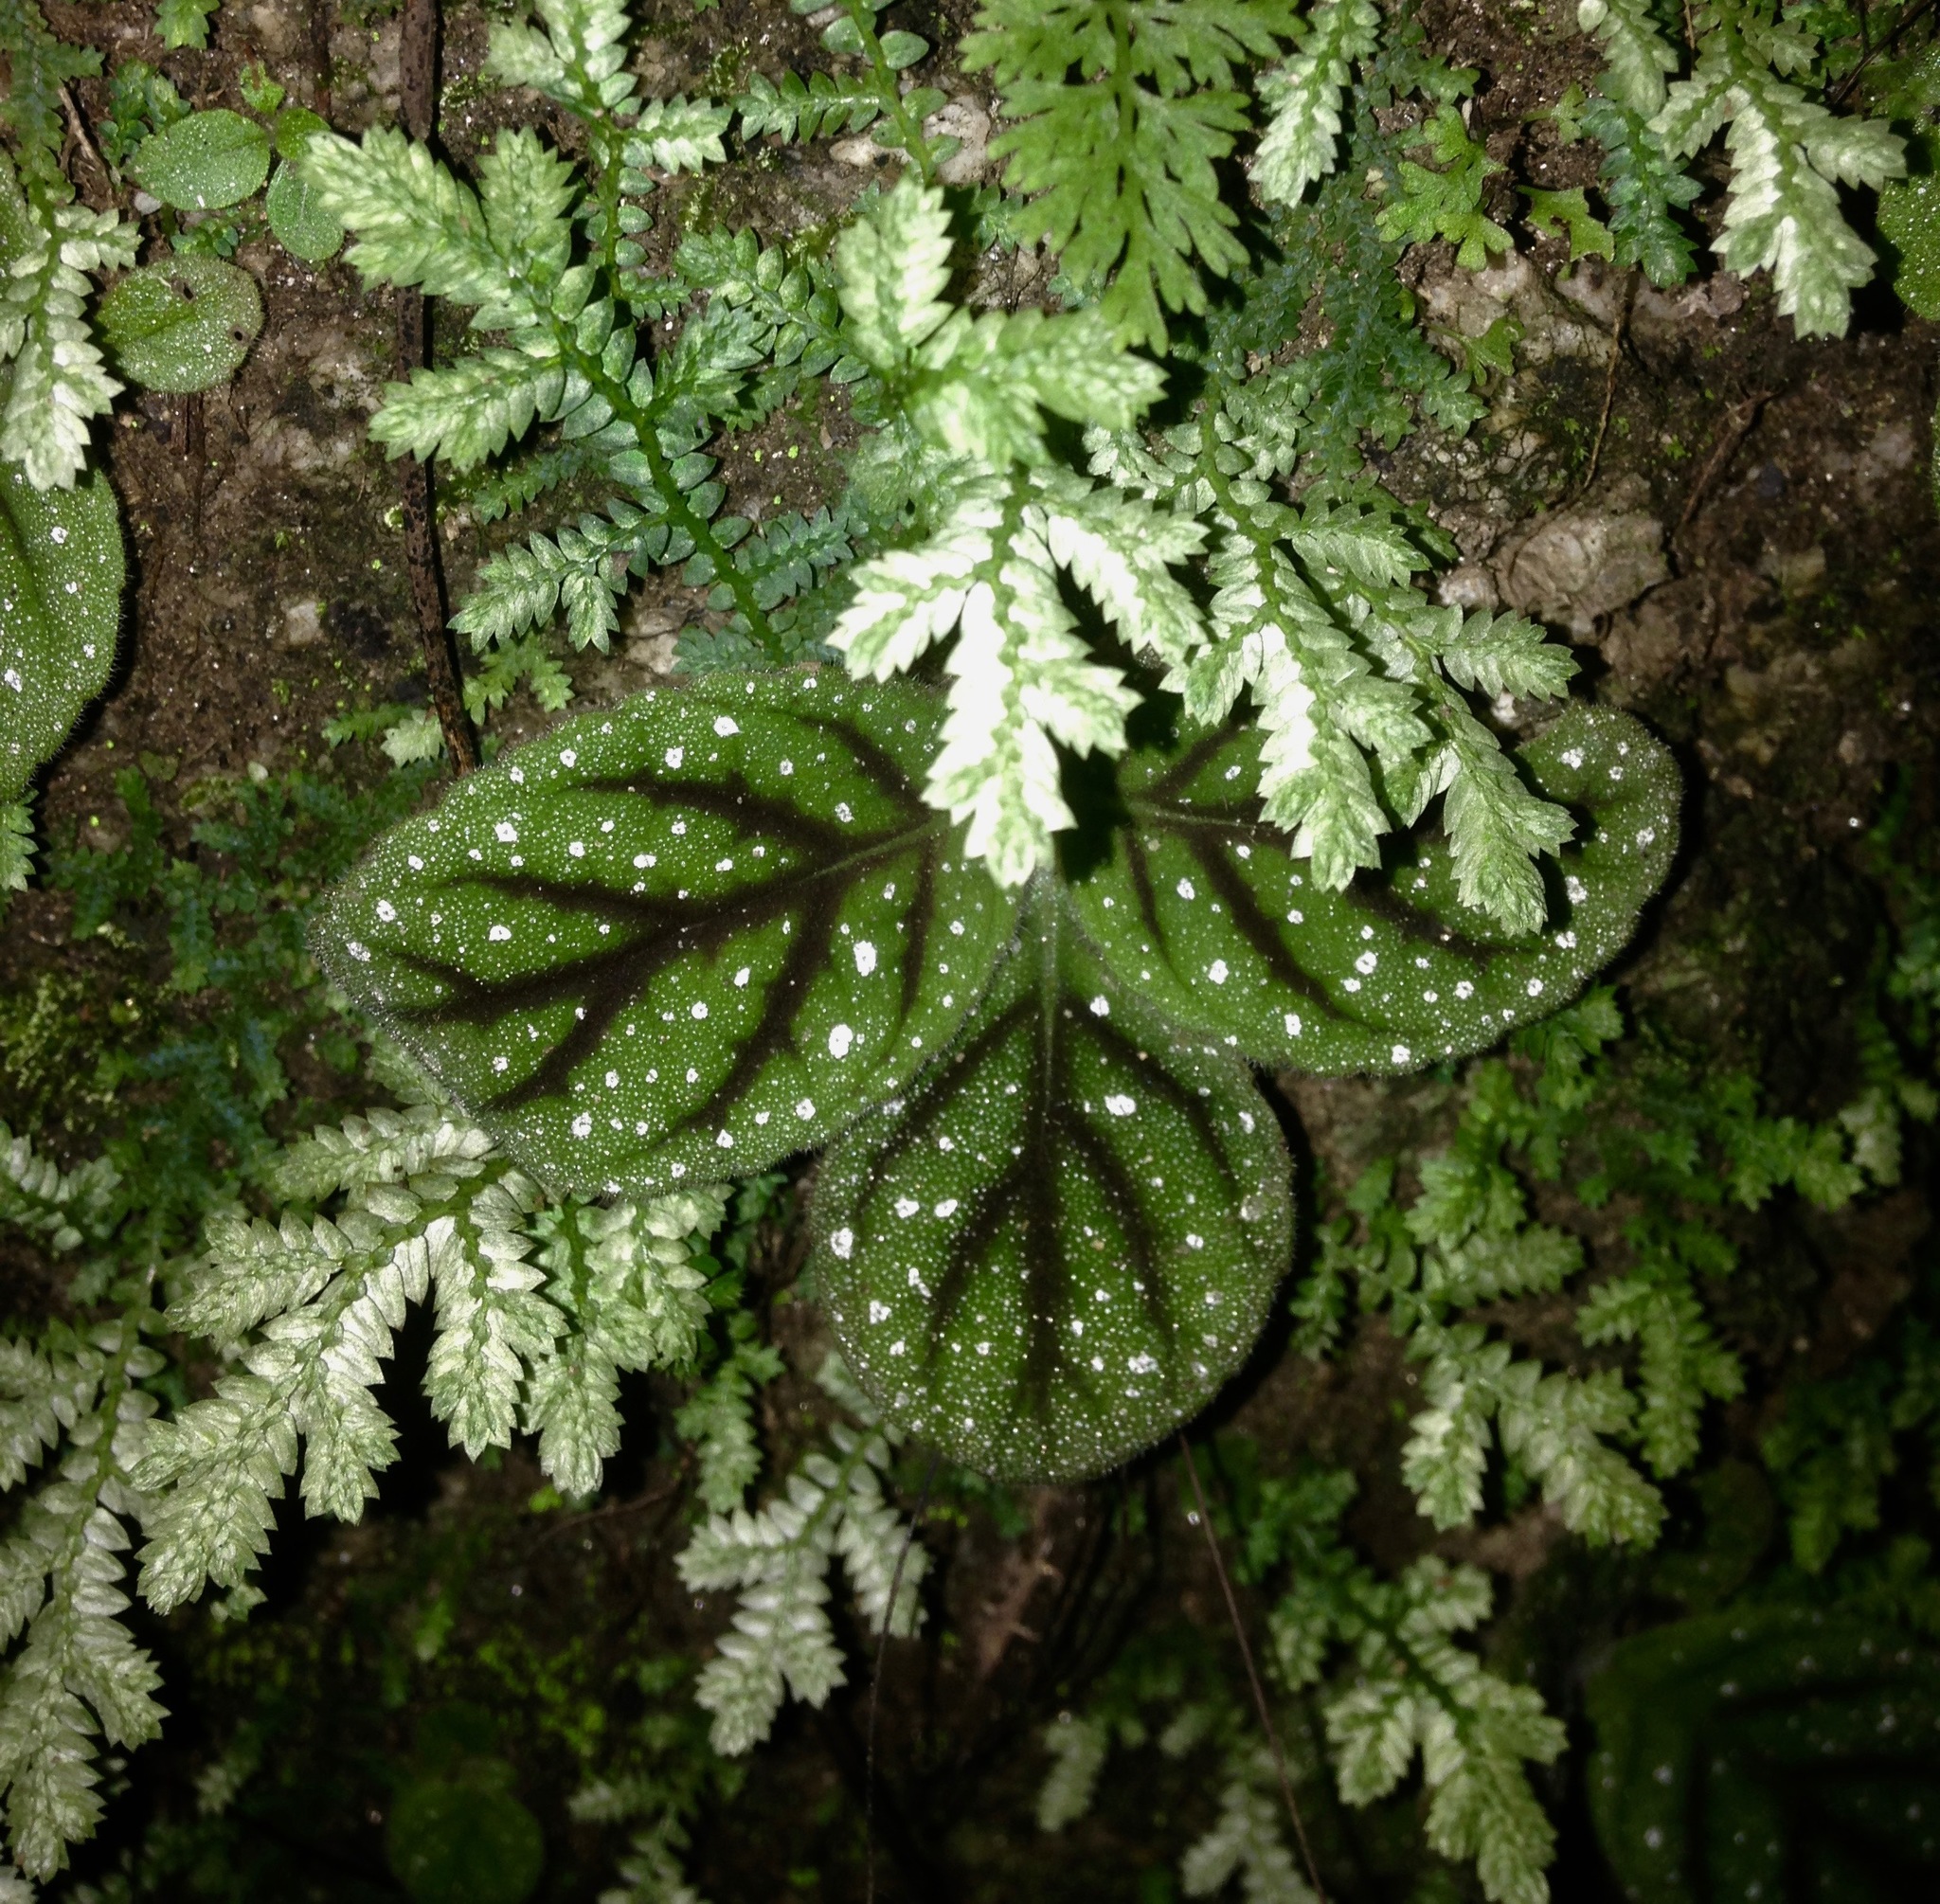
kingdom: Plantae
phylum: Tracheophyta
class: Magnoliopsida
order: Lamiales
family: Gesneriaceae
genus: Gloxinia
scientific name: Gloxinia erinoides
